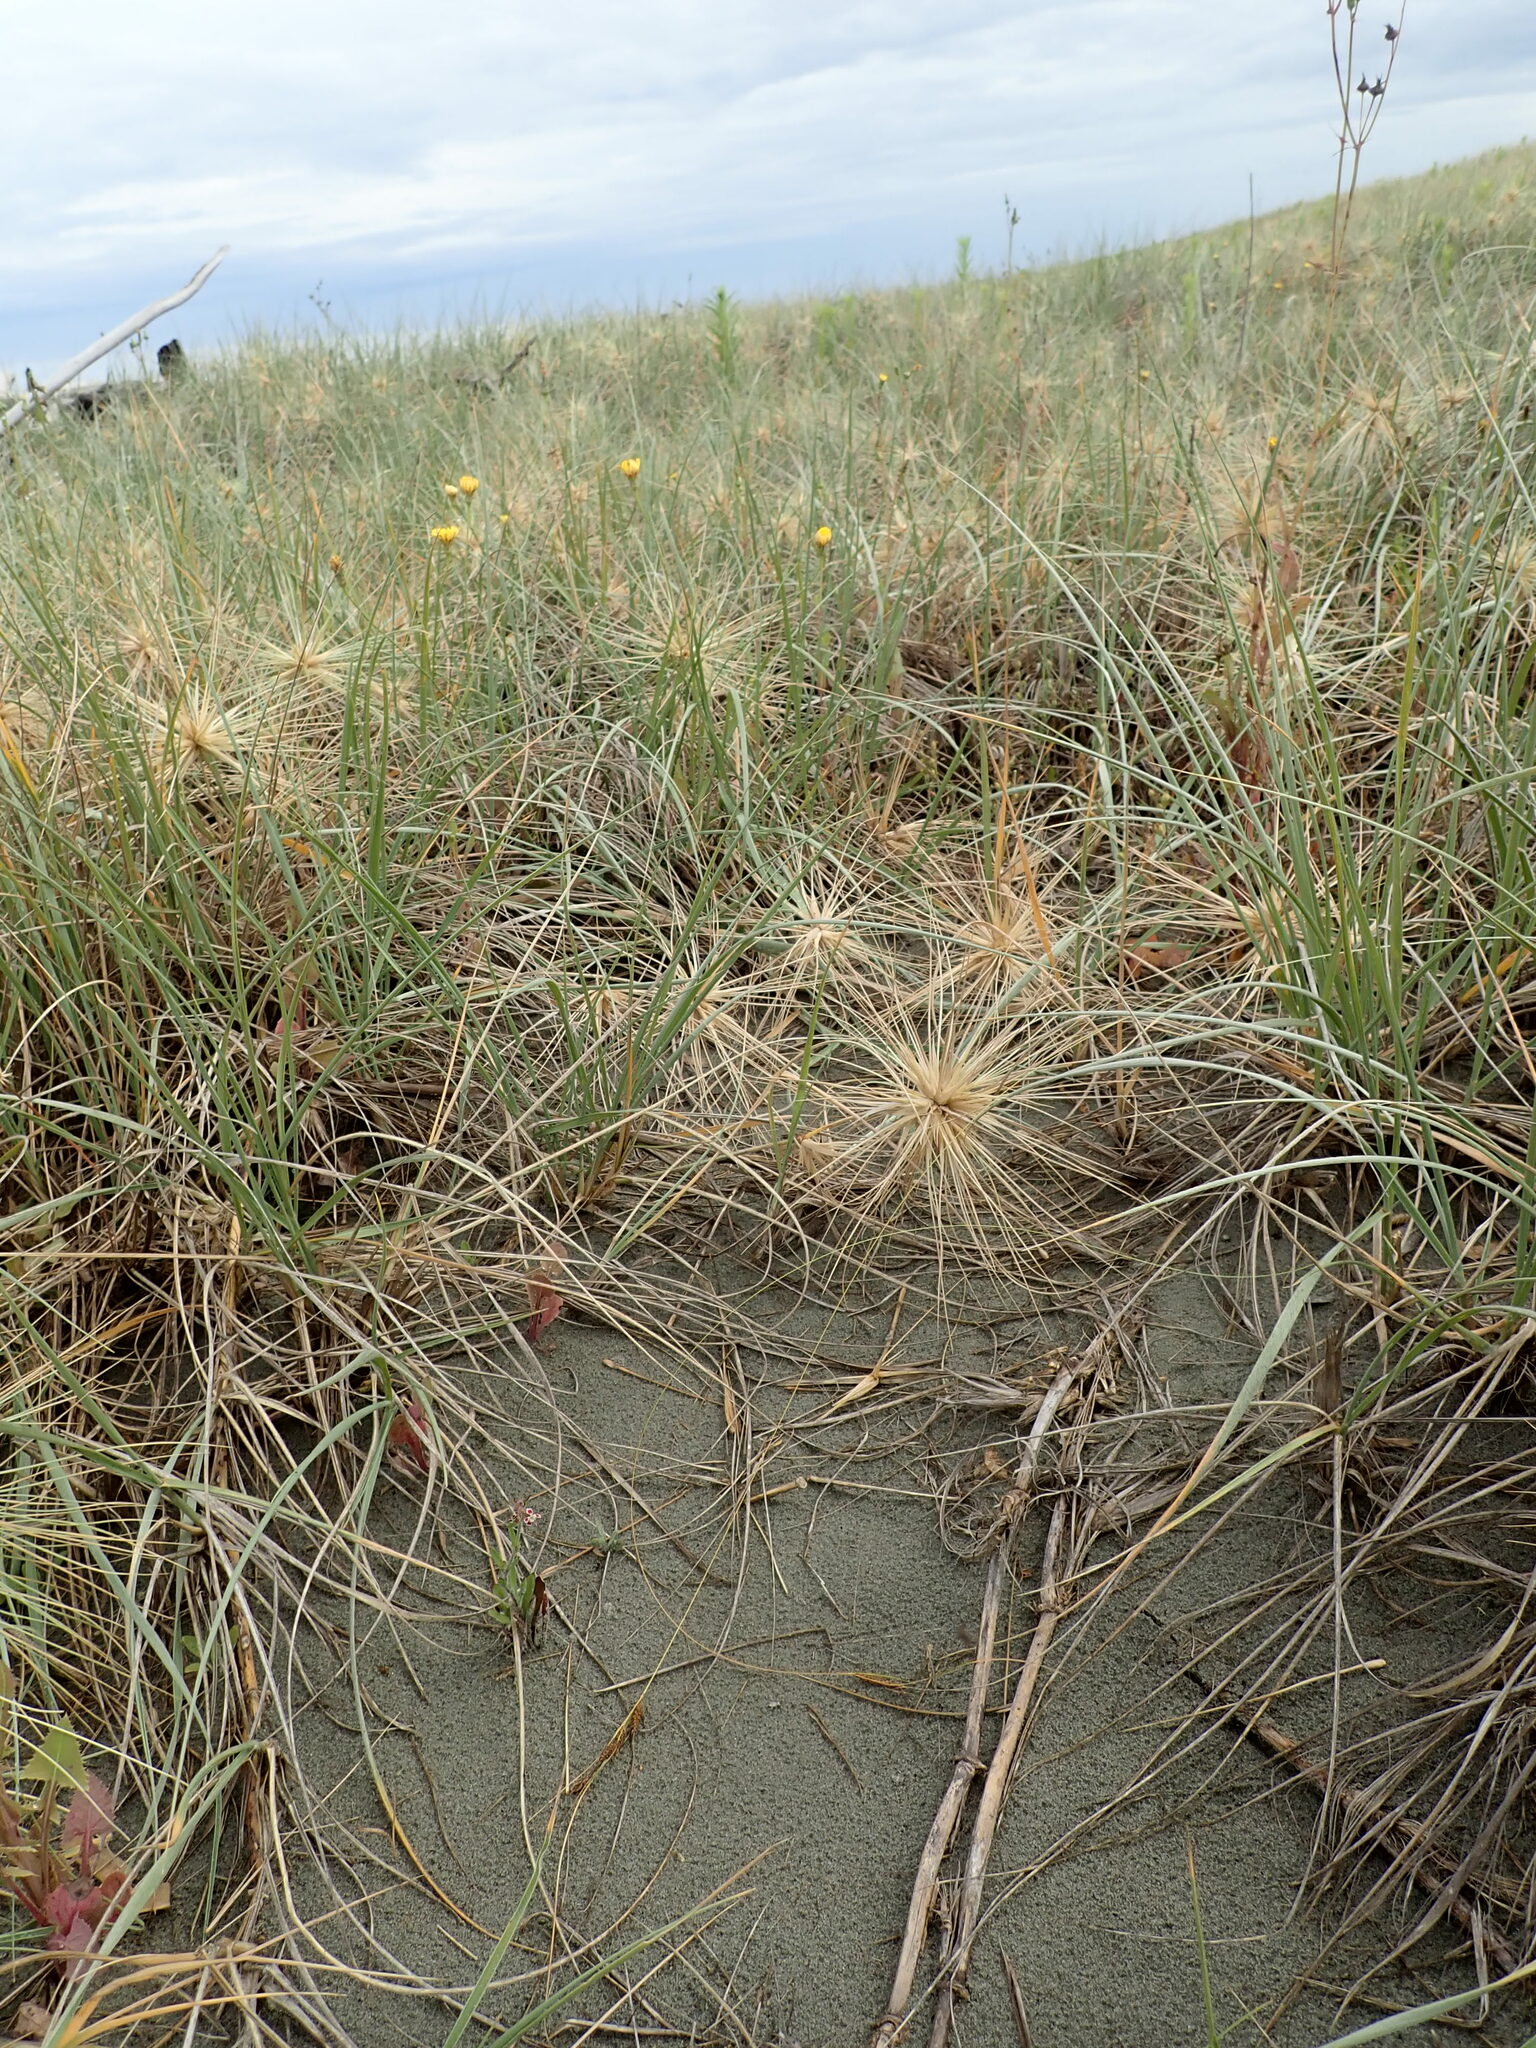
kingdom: Plantae
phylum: Tracheophyta
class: Magnoliopsida
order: Caryophyllales
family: Caryophyllaceae
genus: Silene
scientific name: Silene gallica
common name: Small-flowered catchfly
